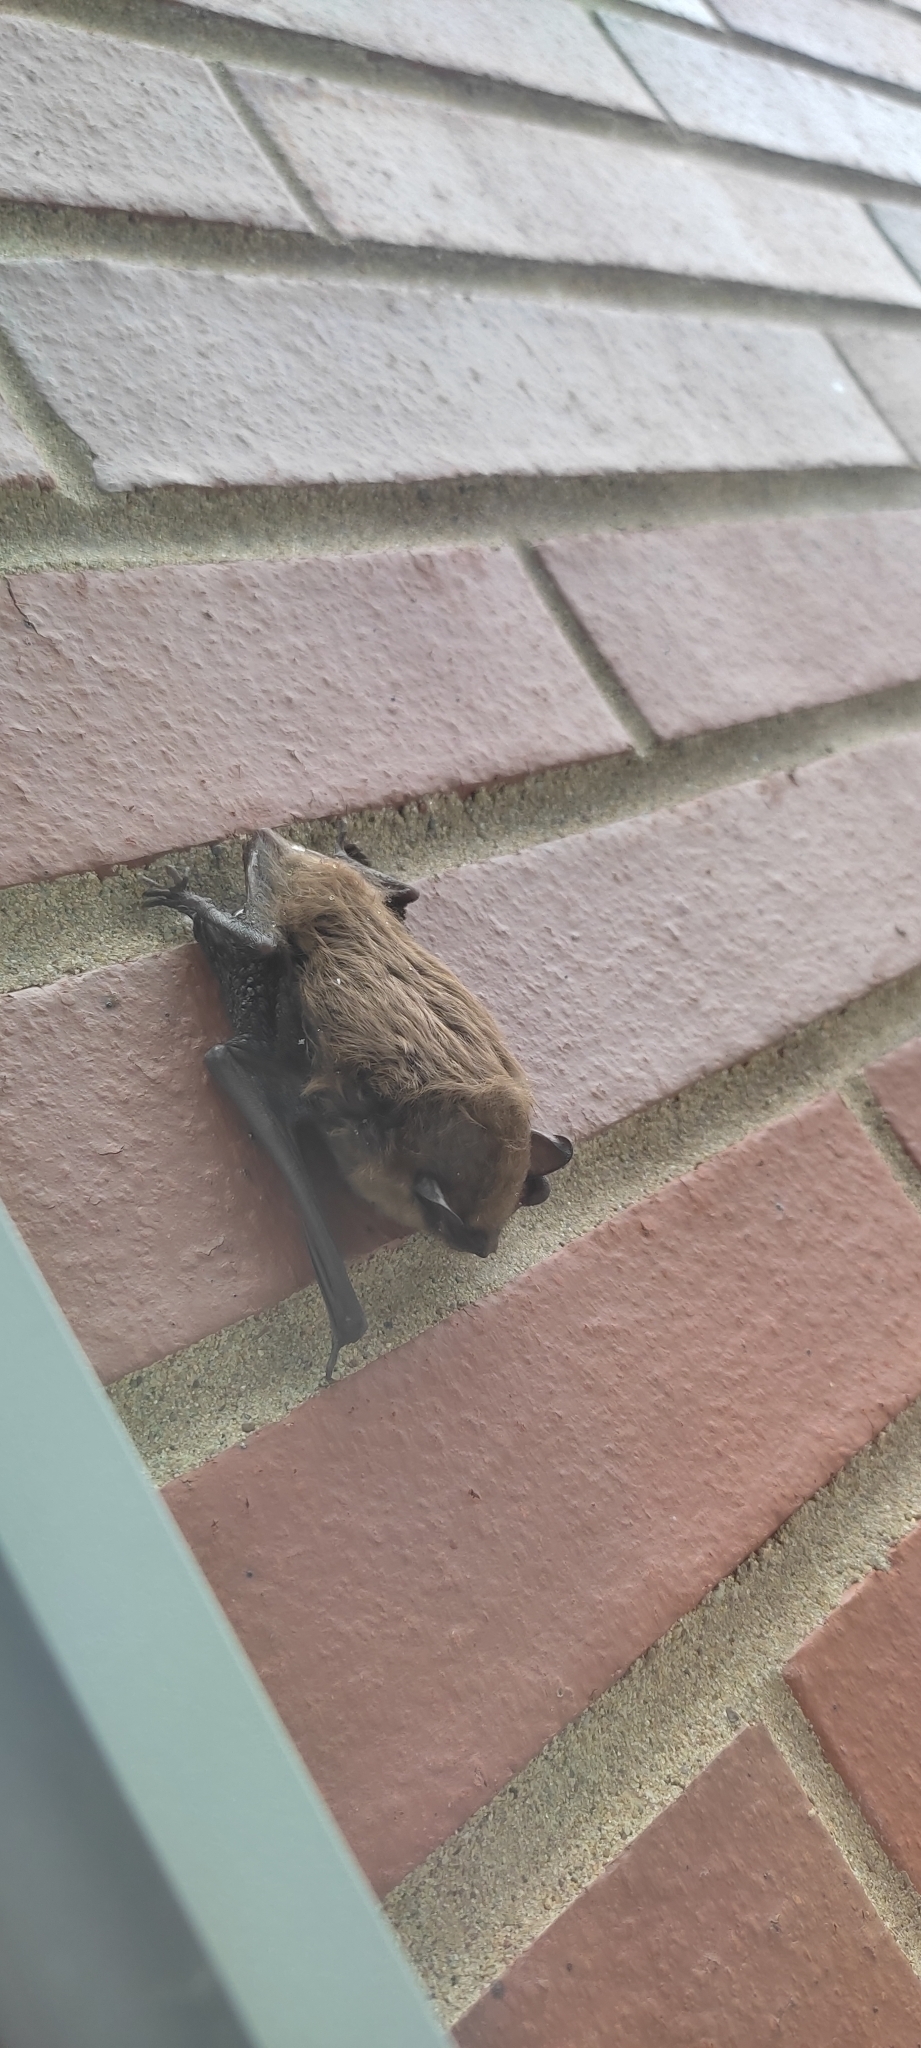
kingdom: Animalia
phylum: Chordata
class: Mammalia
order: Chiroptera
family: Vespertilionidae
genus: Eptesicus
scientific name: Eptesicus fuscus
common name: Big brown bat
